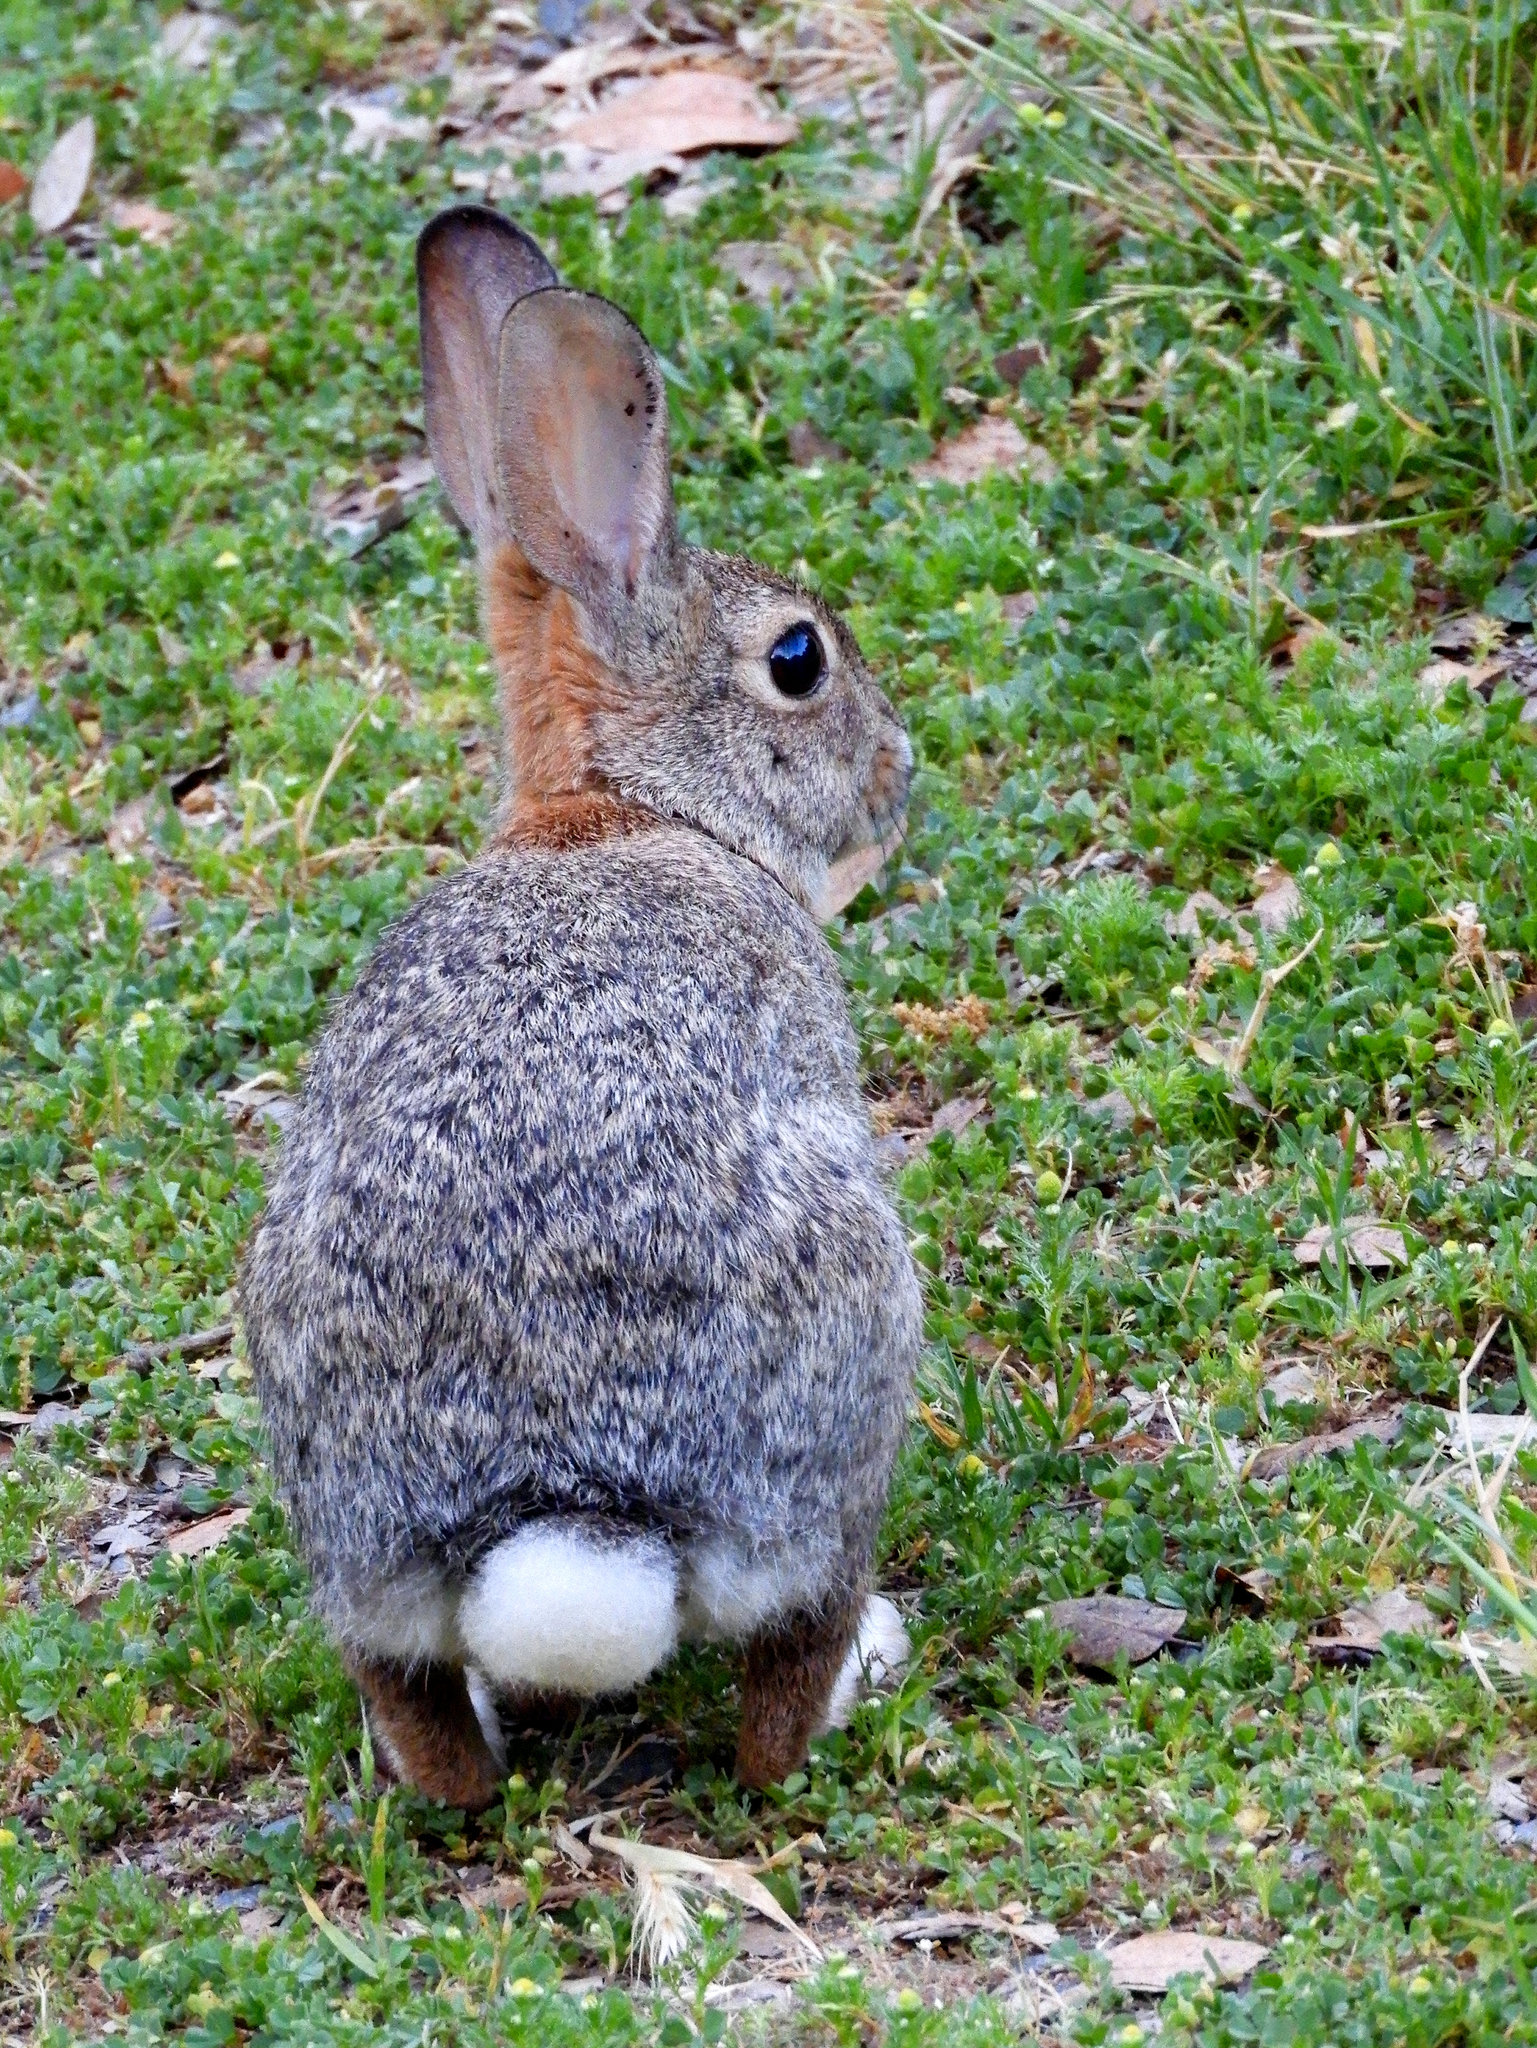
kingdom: Animalia
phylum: Chordata
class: Mammalia
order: Lagomorpha
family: Leporidae
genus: Sylvilagus
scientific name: Sylvilagus audubonii
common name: Desert cottontail
